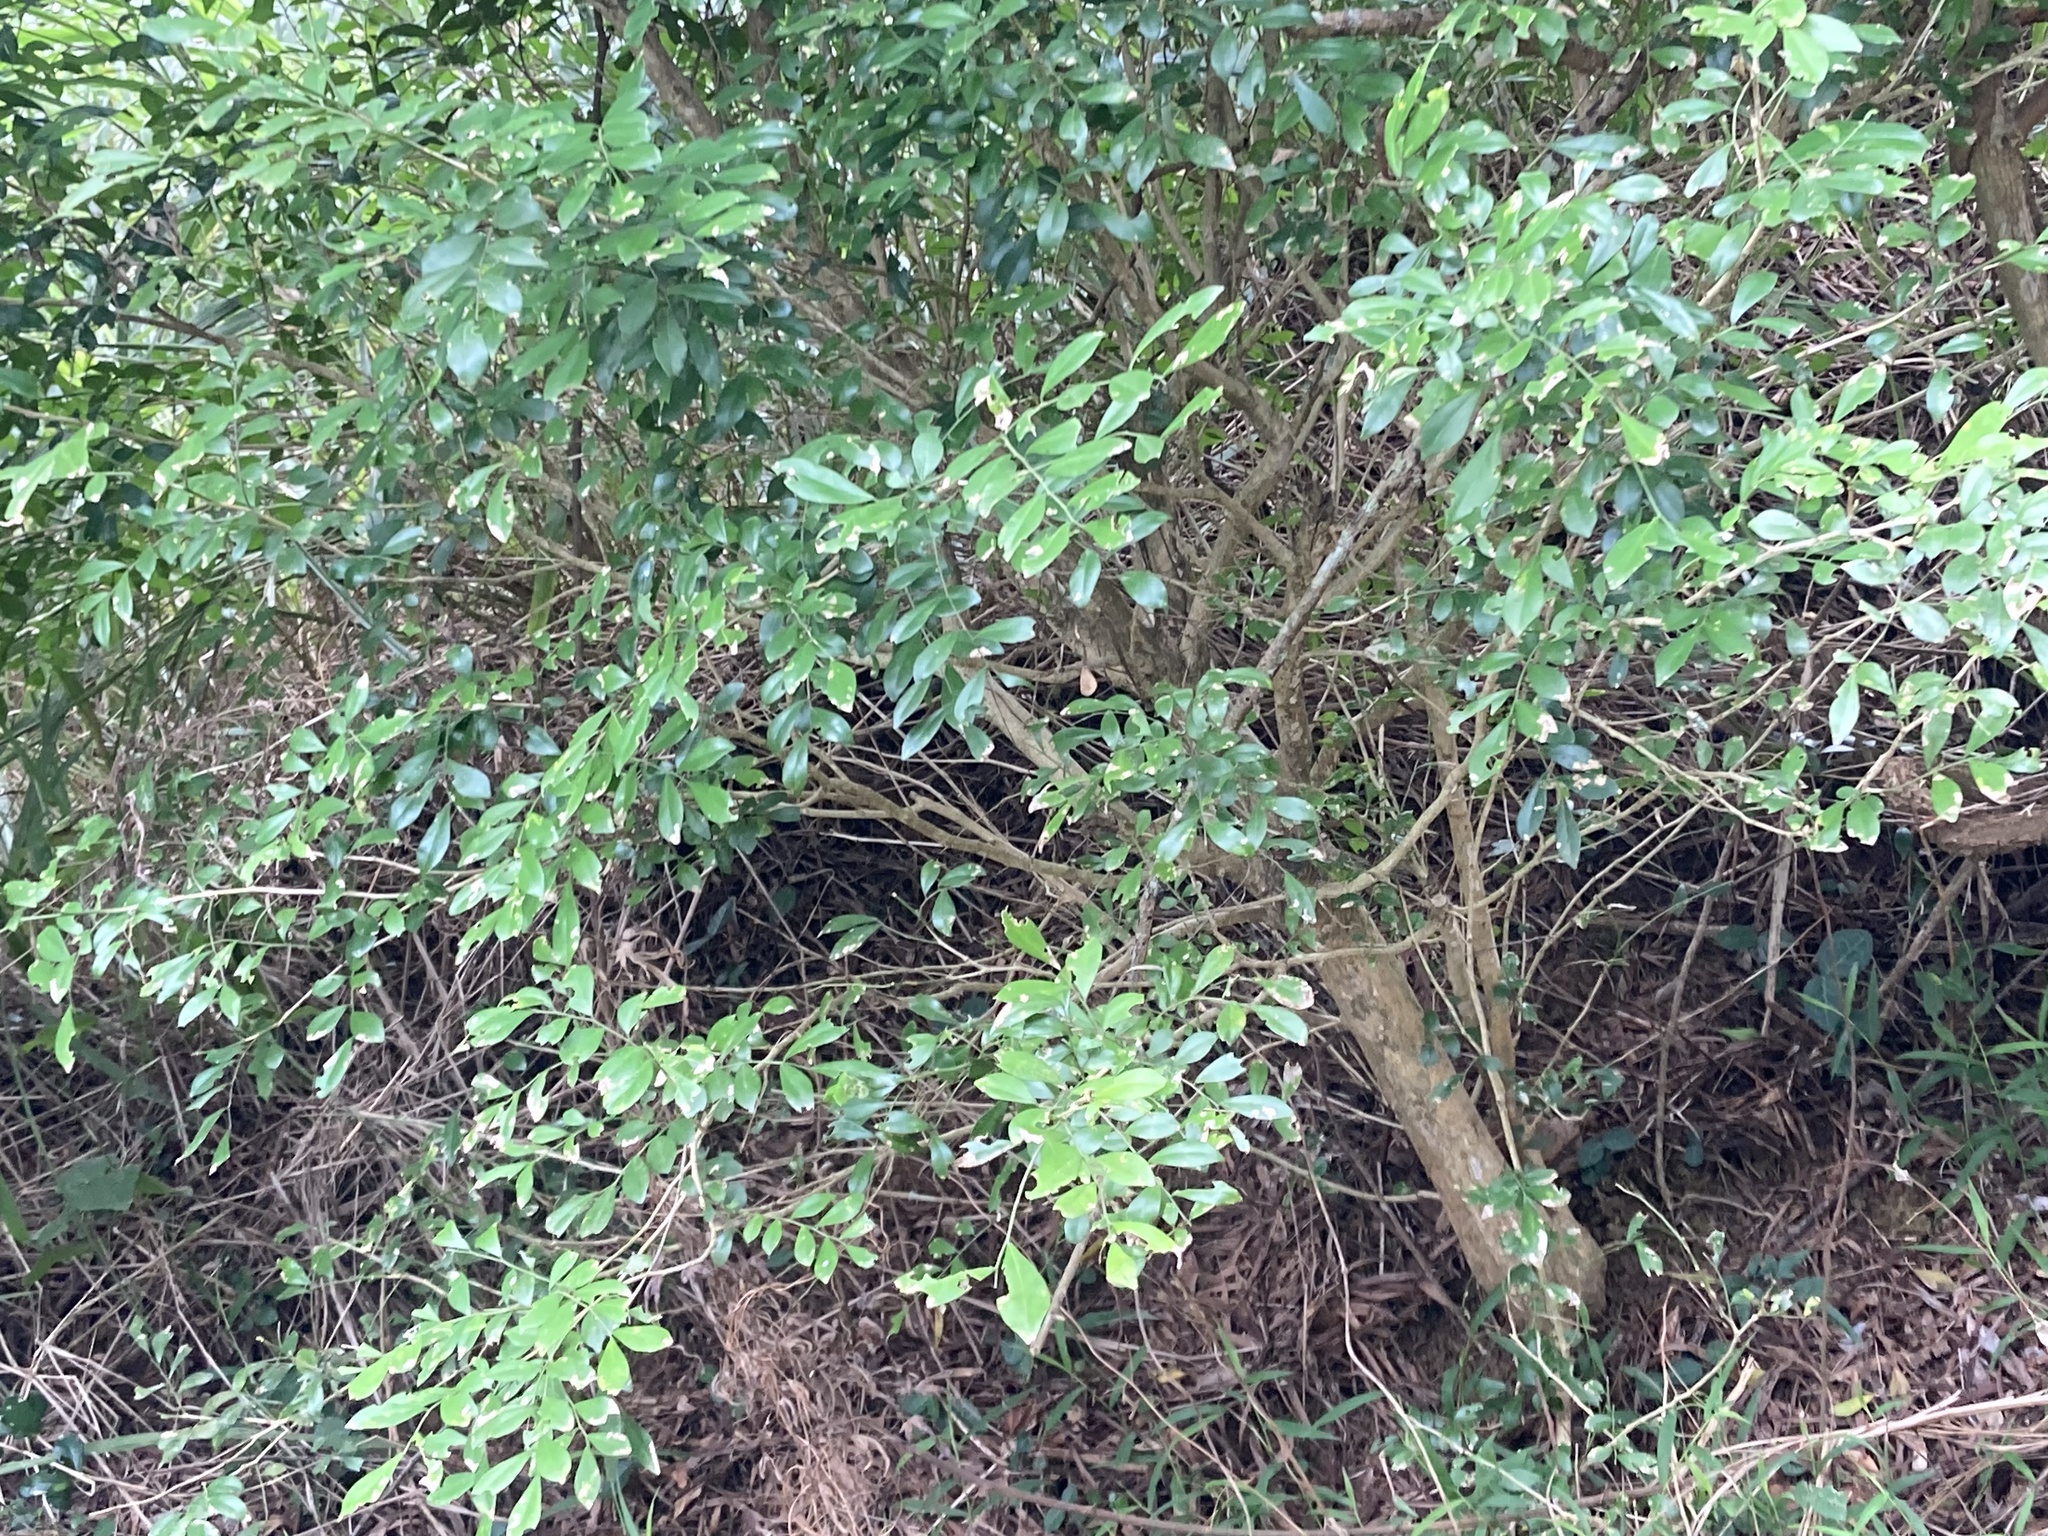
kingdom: Plantae
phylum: Tracheophyta
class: Magnoliopsida
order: Sapindales
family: Rutaceae
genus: Murraya
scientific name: Murraya paniculata
